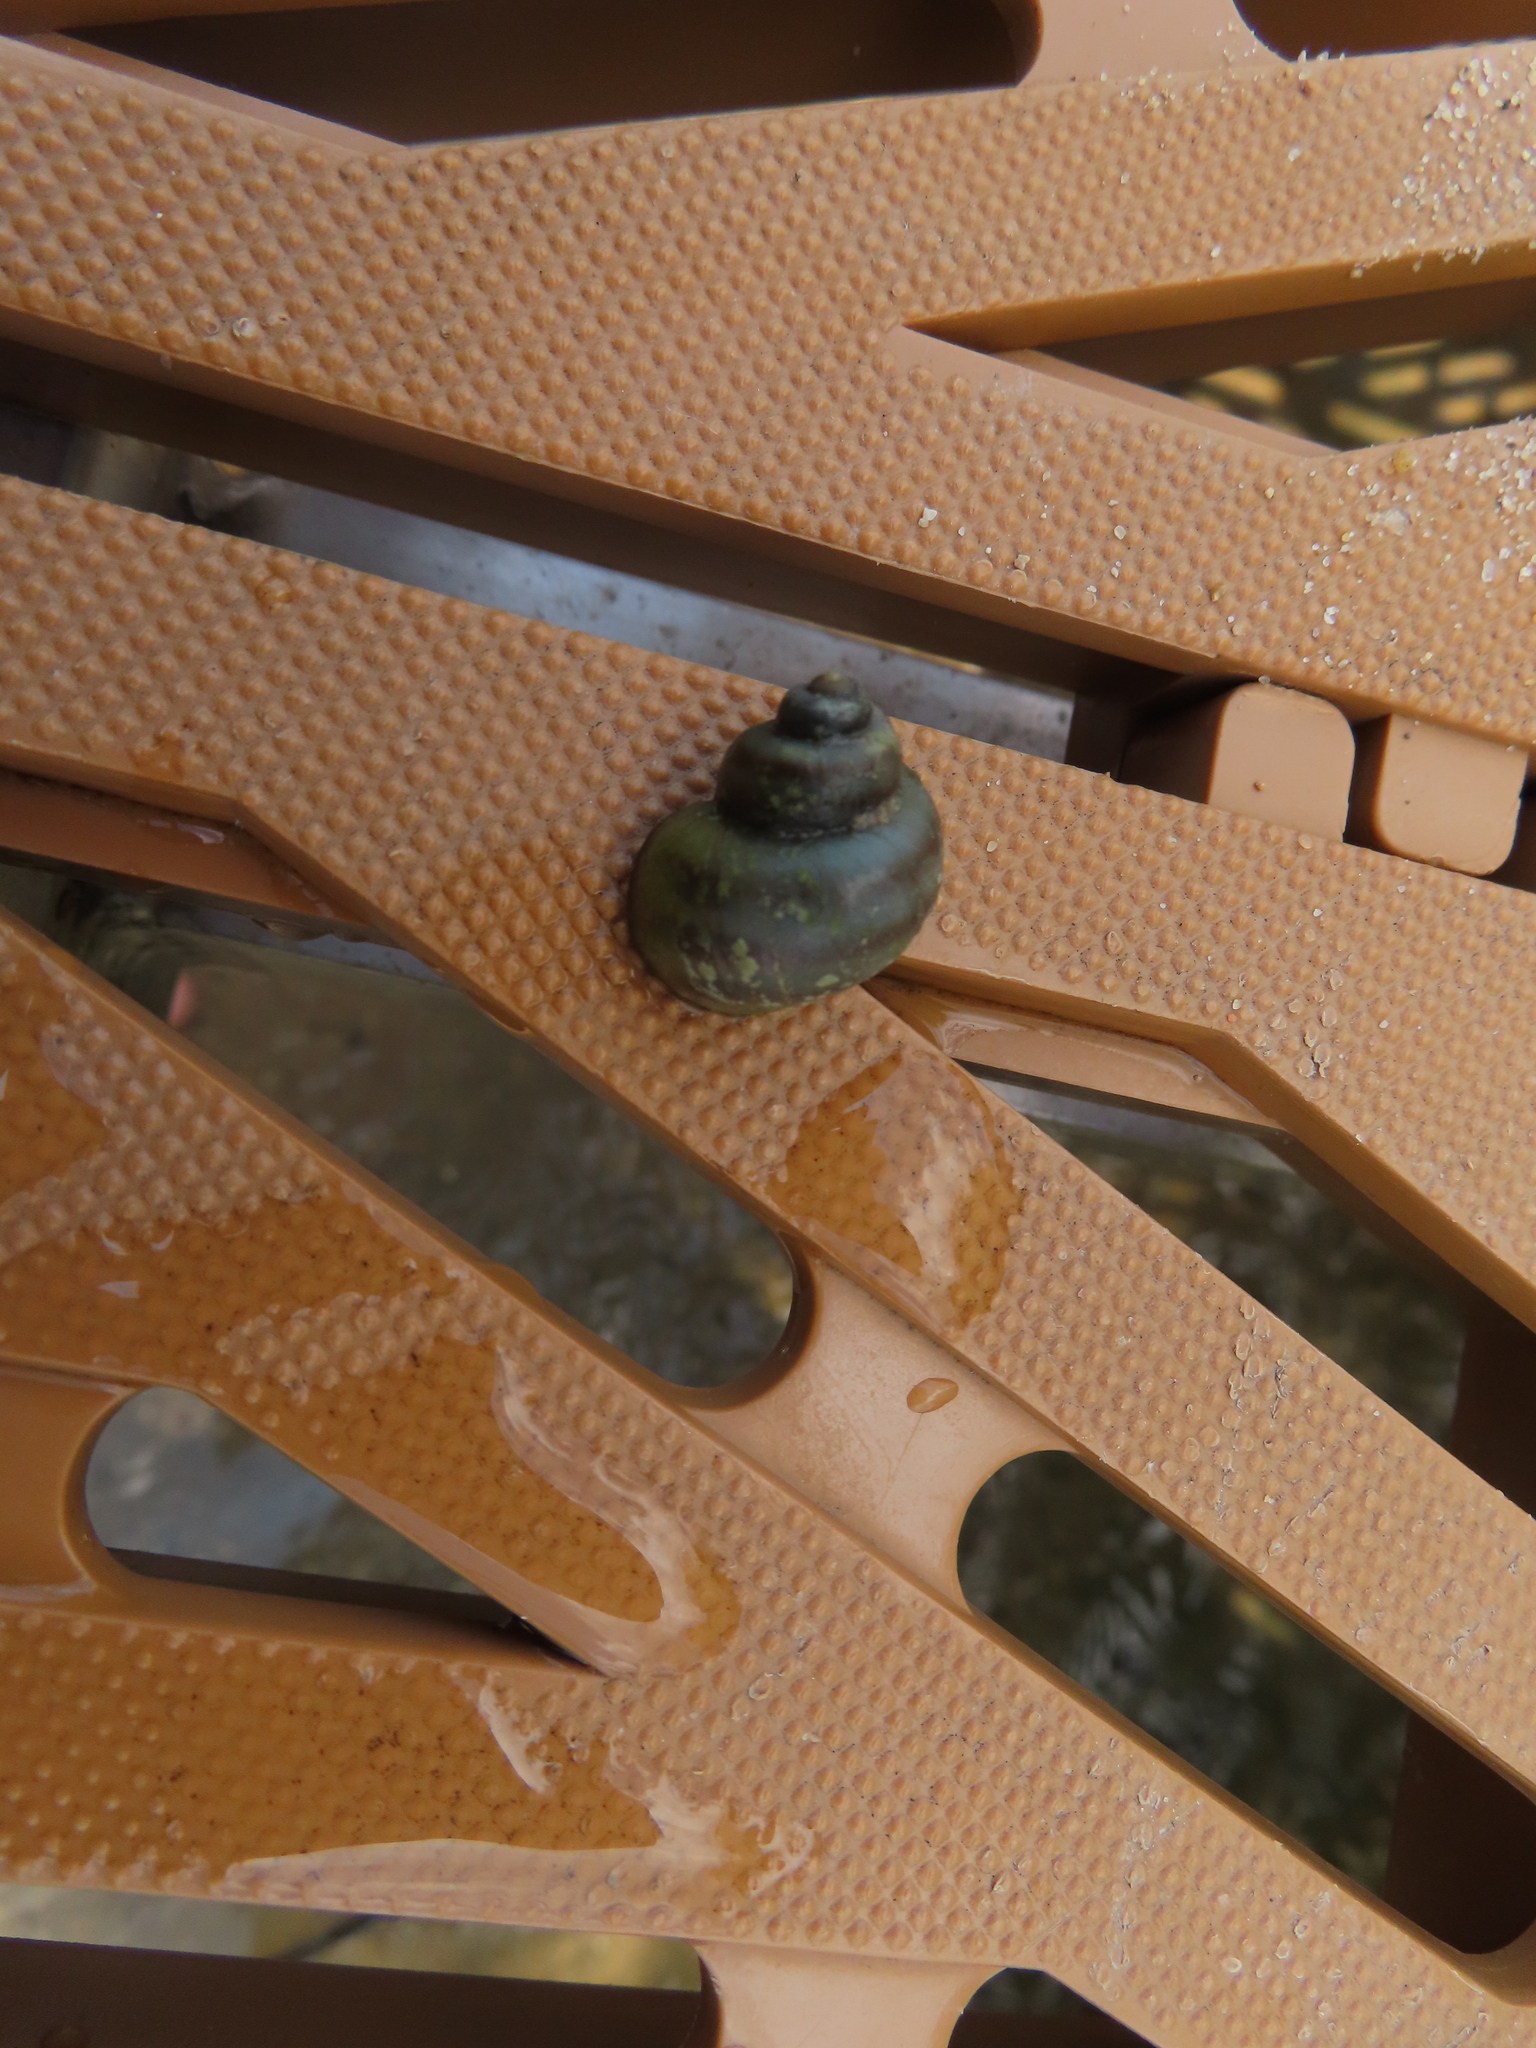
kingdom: Animalia
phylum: Mollusca
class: Gastropoda
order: Architaenioglossa
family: Viviparidae
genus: Callinina
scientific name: Callinina georgiana
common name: Banded mystery snail
